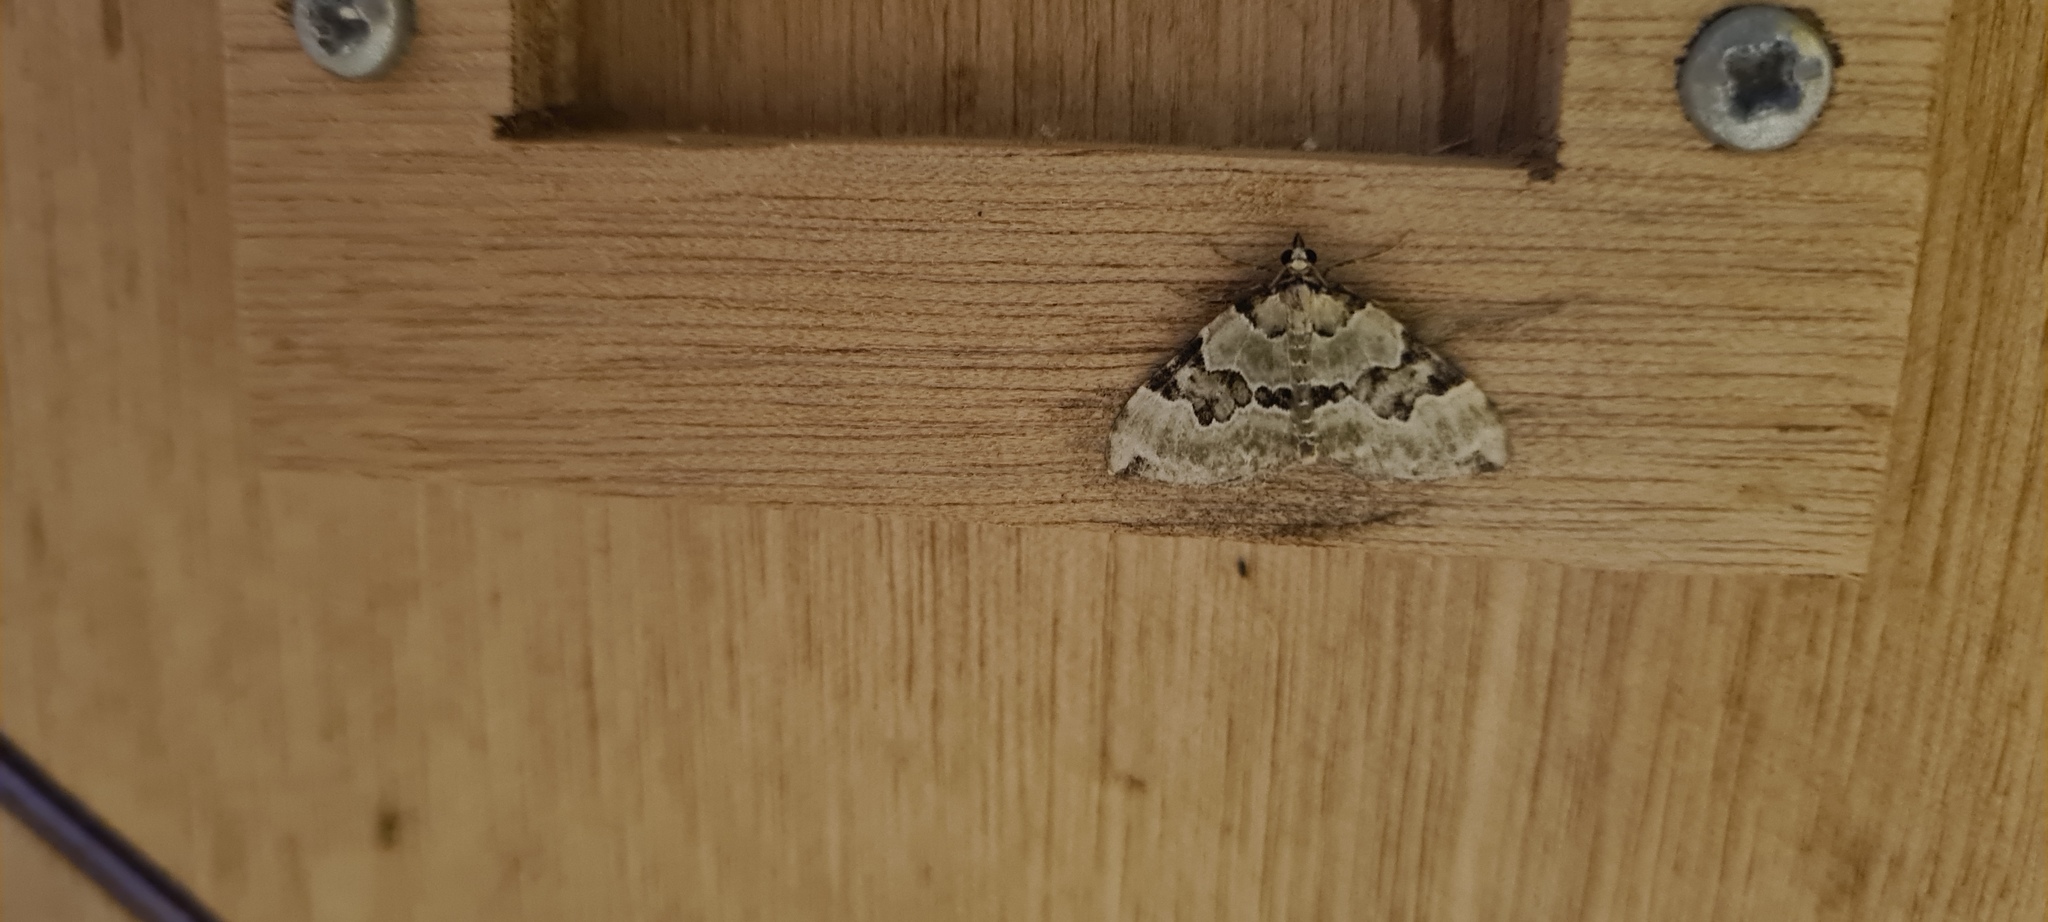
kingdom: Animalia
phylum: Arthropoda
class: Insecta
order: Lepidoptera
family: Geometridae
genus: Colostygia
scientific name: Colostygia pectinataria
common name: Green carpet
